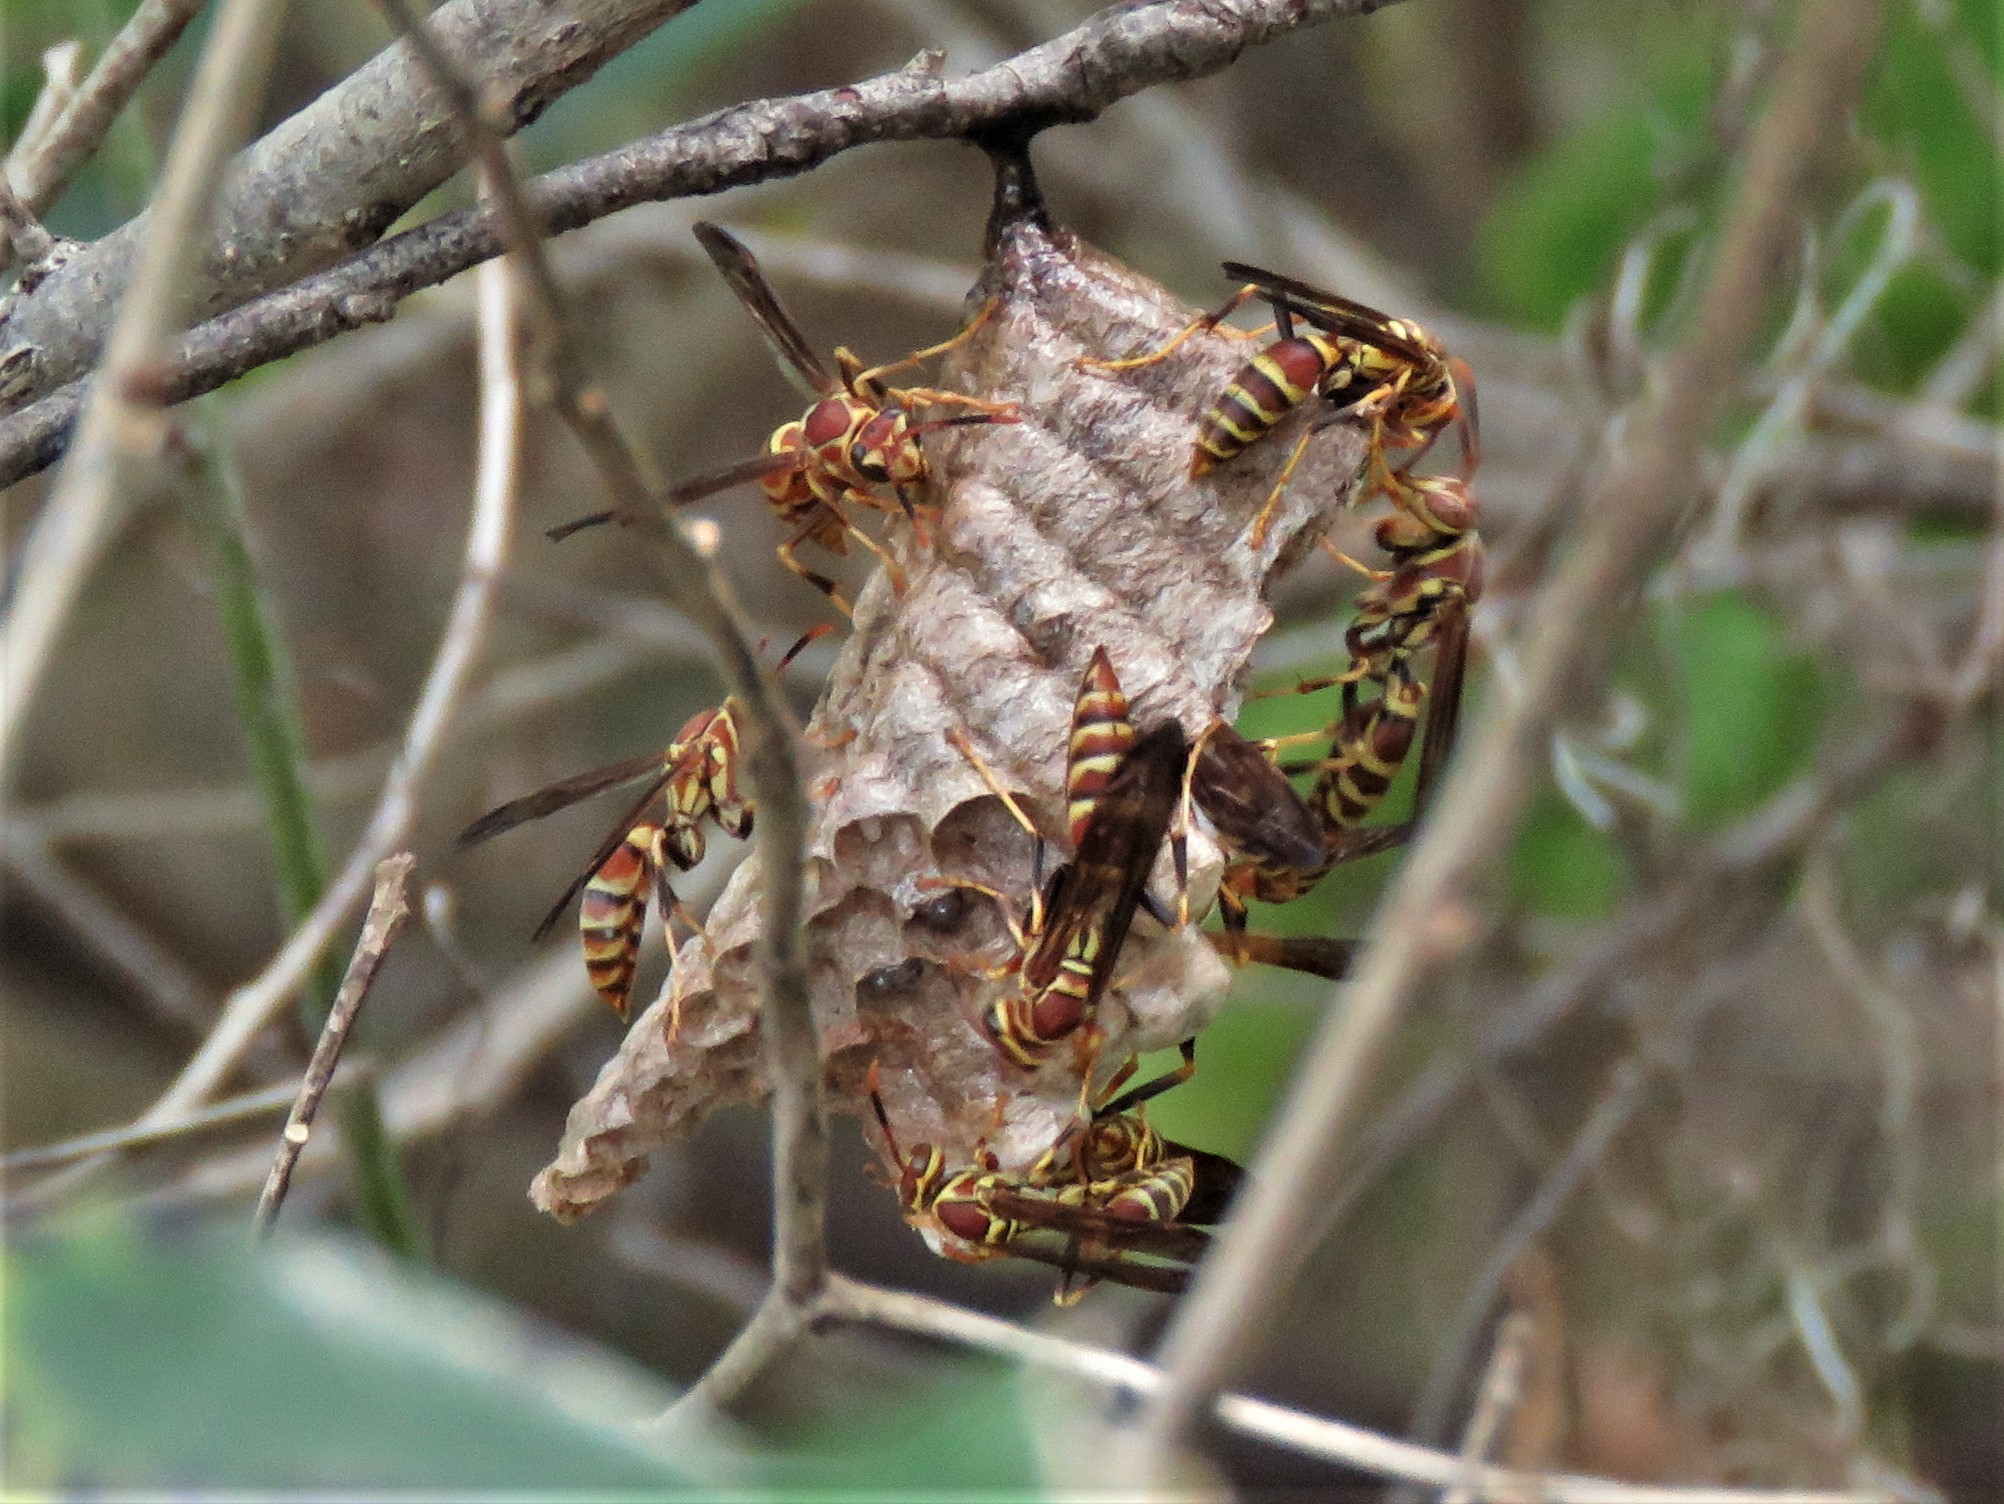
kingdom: Animalia
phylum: Arthropoda
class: Insecta
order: Hymenoptera
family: Eumenidae
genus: Polistes
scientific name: Polistes exclamans
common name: Paper wasp
